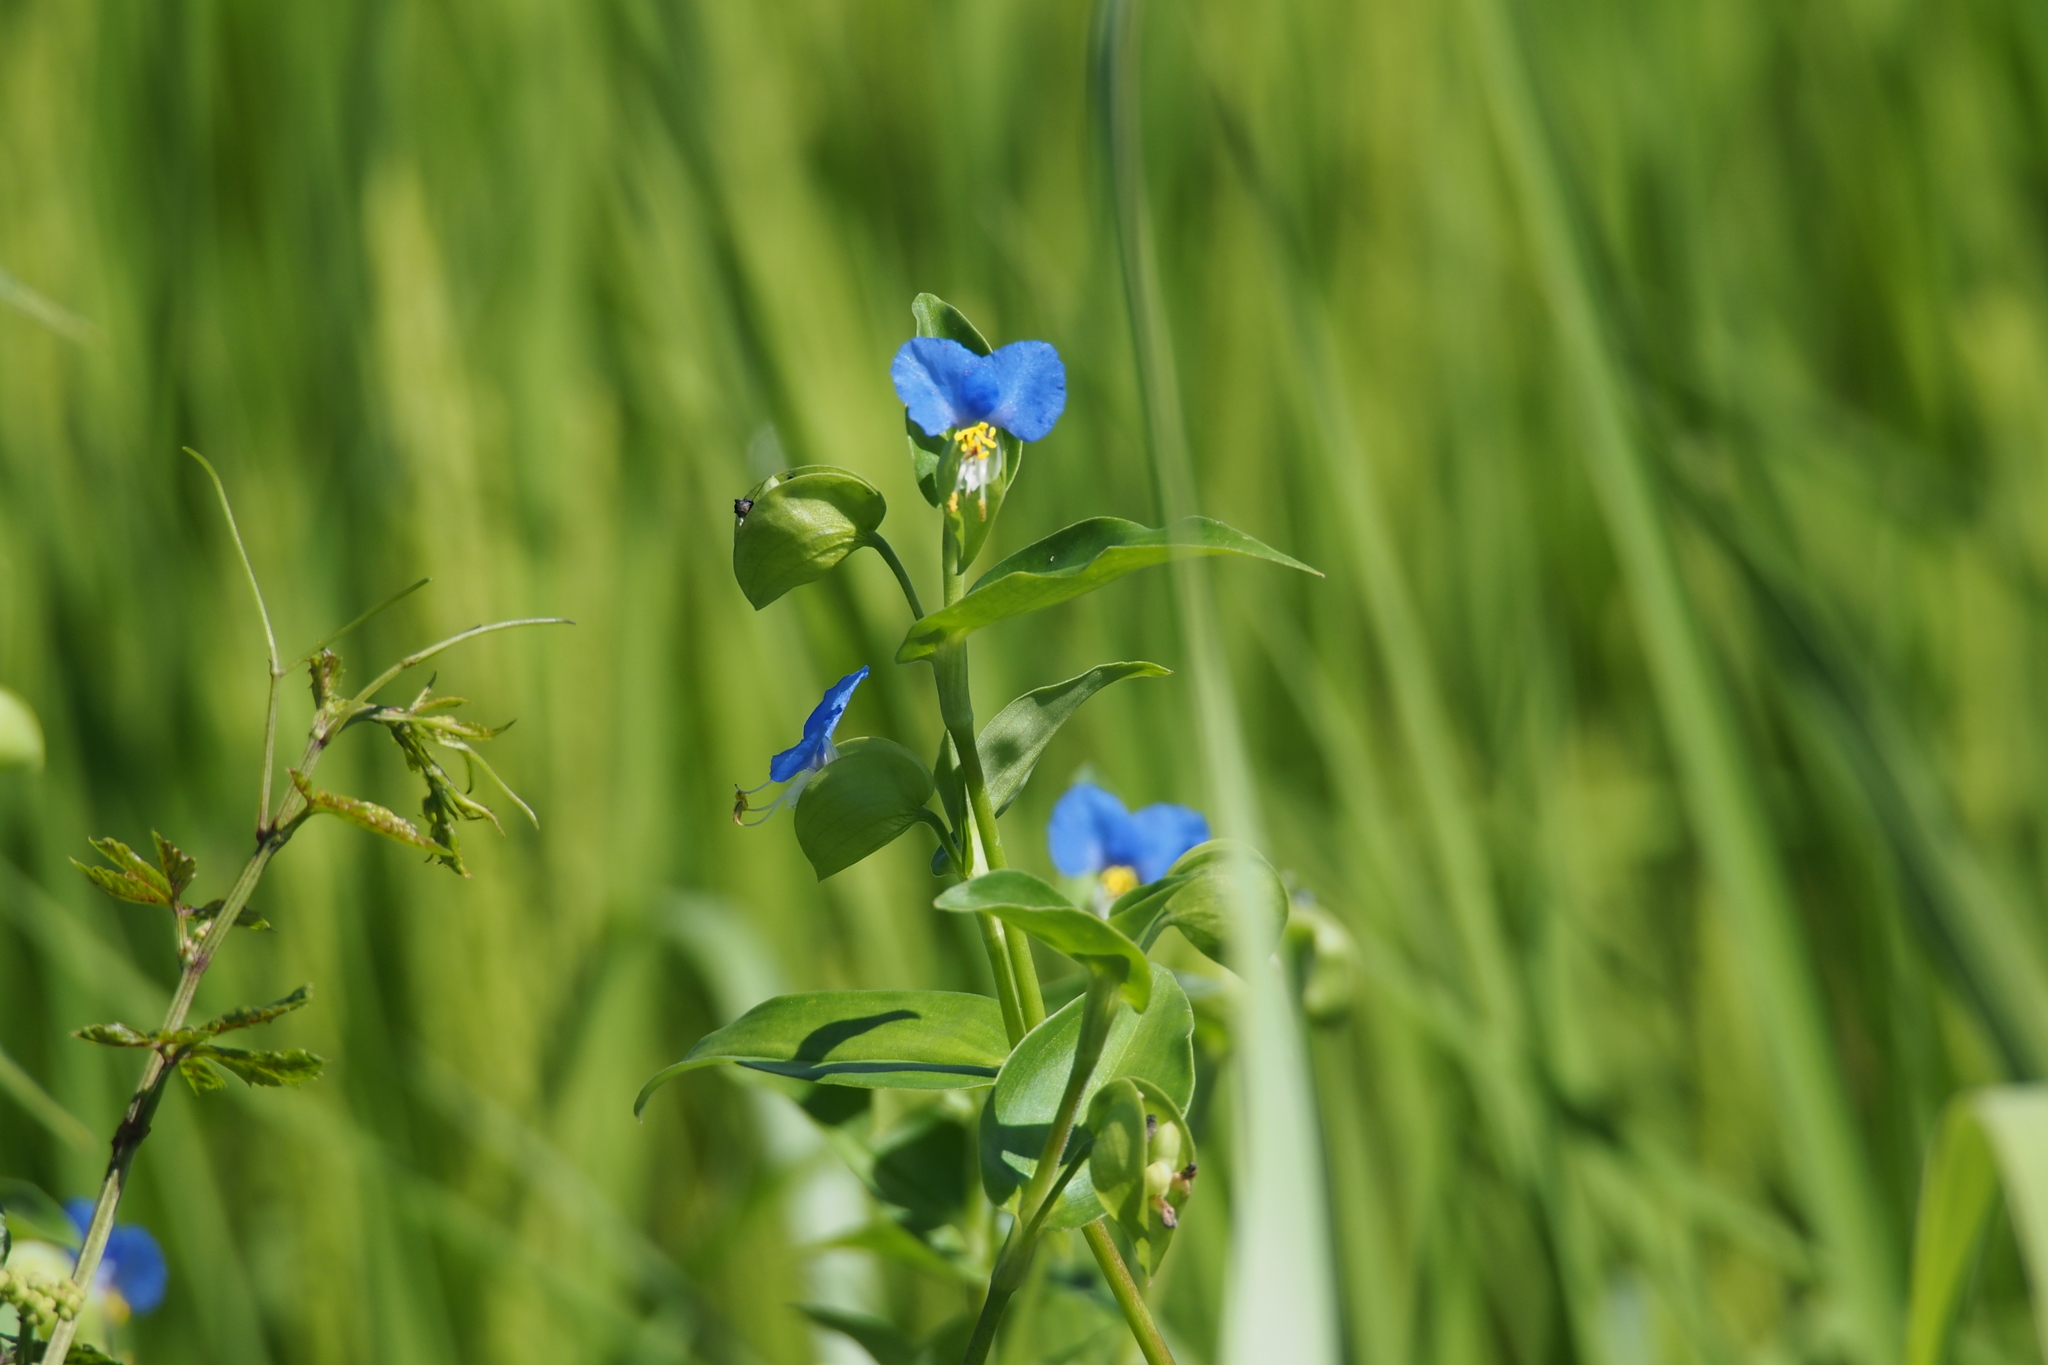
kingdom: Plantae
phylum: Tracheophyta
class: Liliopsida
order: Commelinales
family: Commelinaceae
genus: Commelina
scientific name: Commelina communis
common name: Asiatic dayflower
